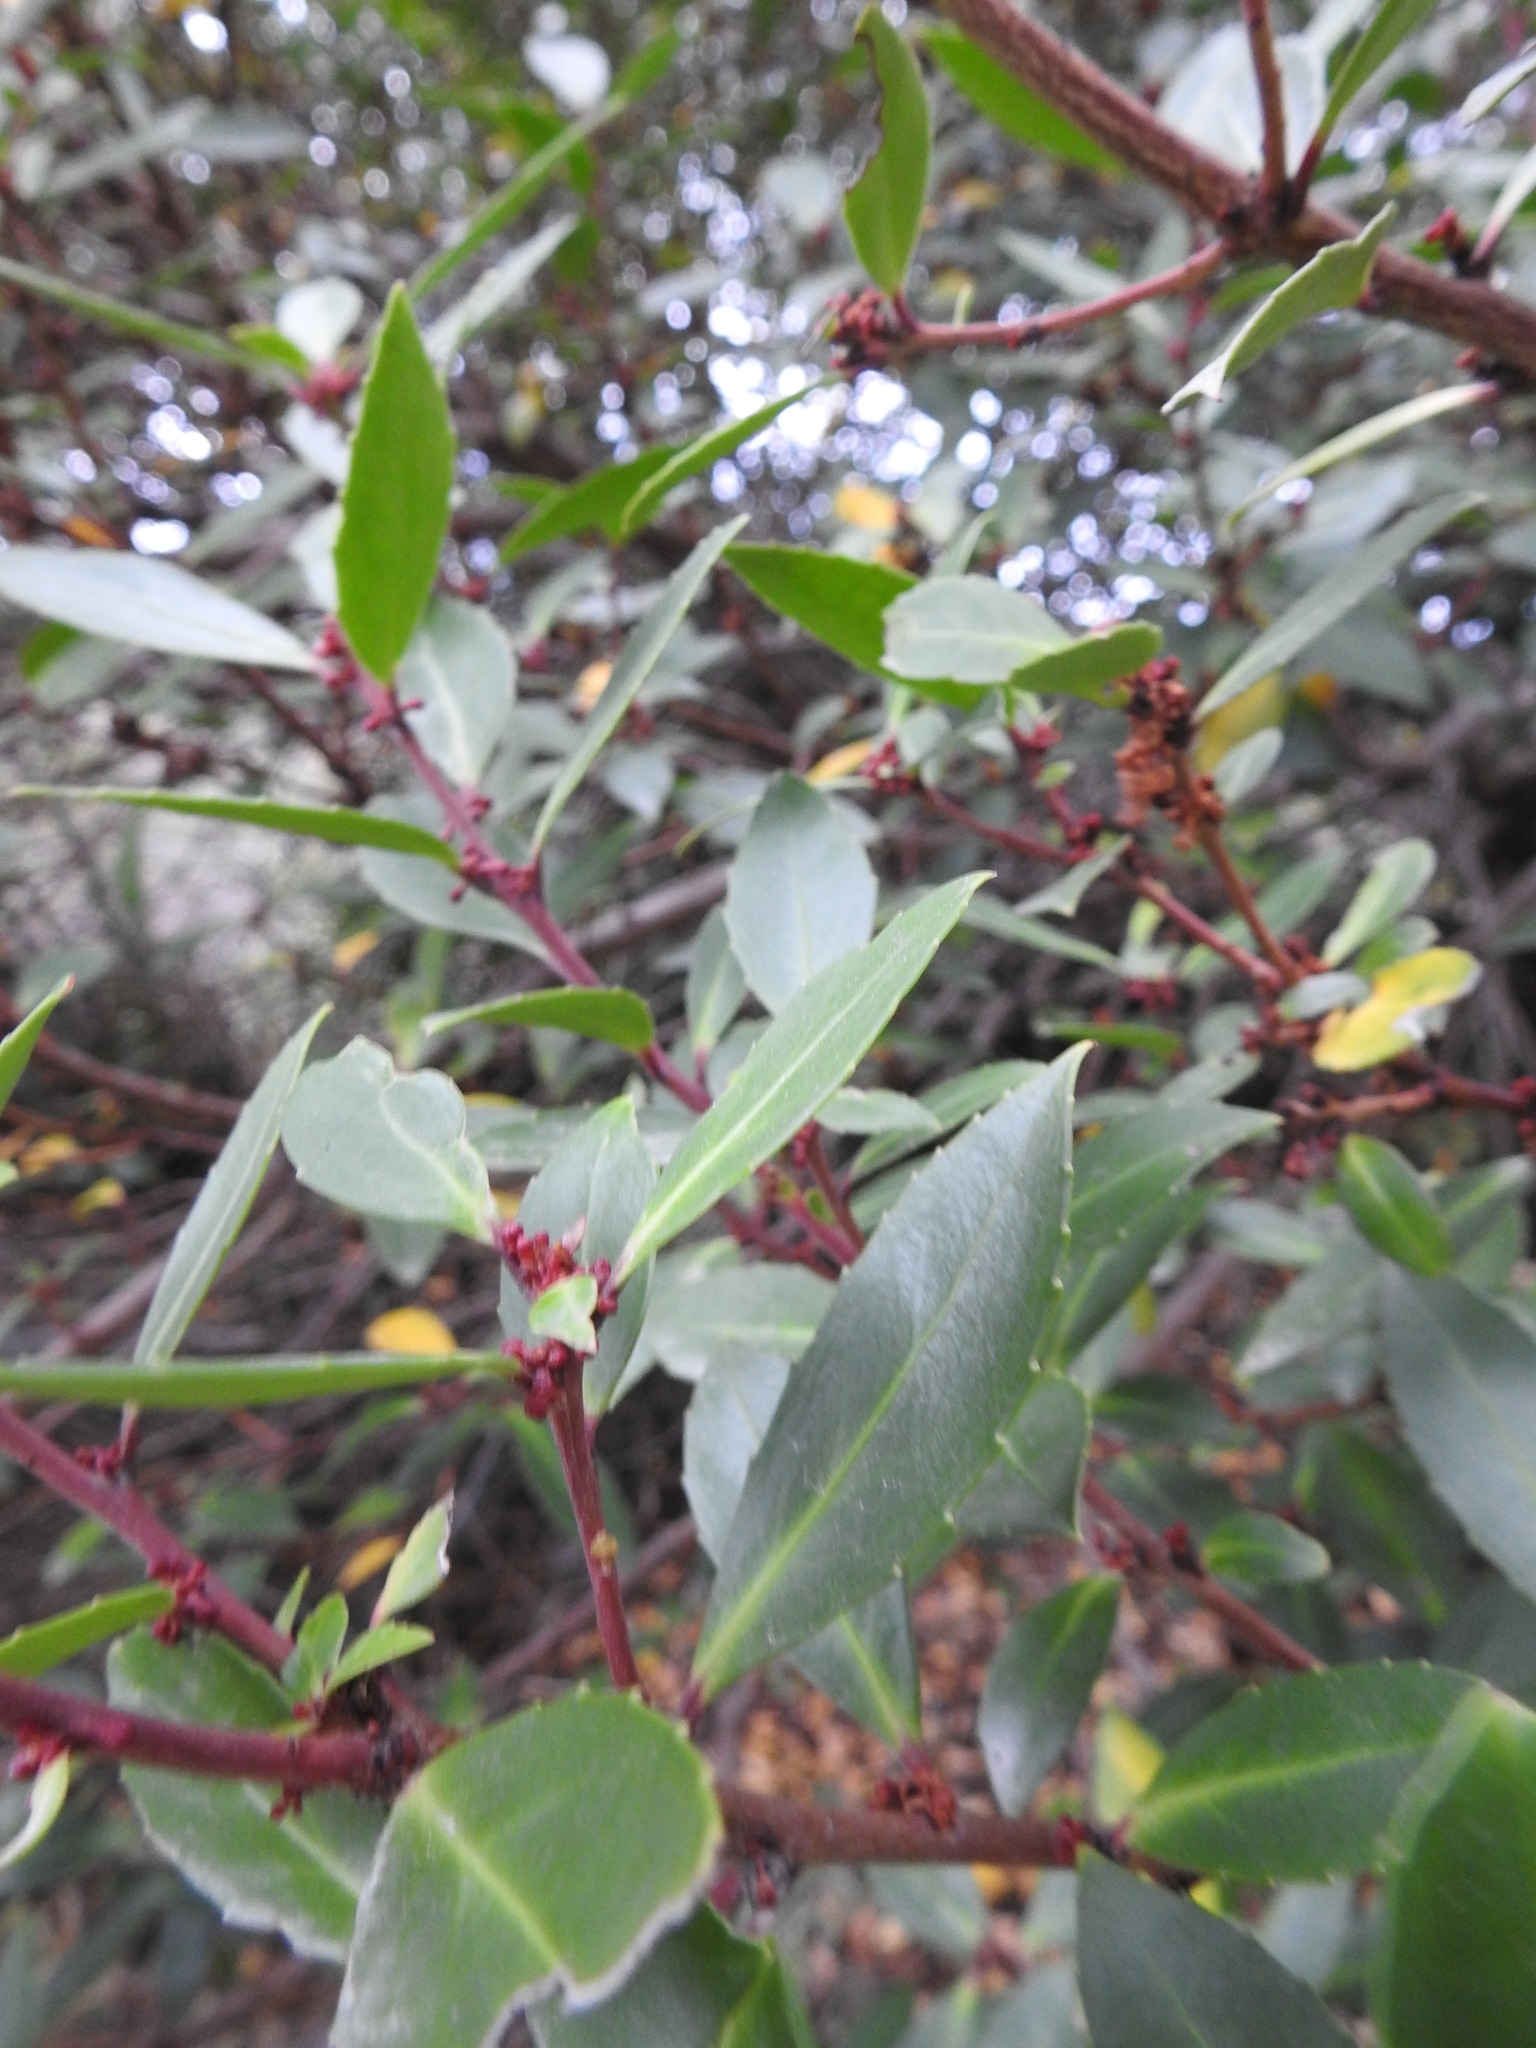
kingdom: Plantae
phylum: Tracheophyta
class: Magnoliopsida
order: Celastrales
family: Celastraceae
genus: Maytenus
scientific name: Maytenus magellanica
